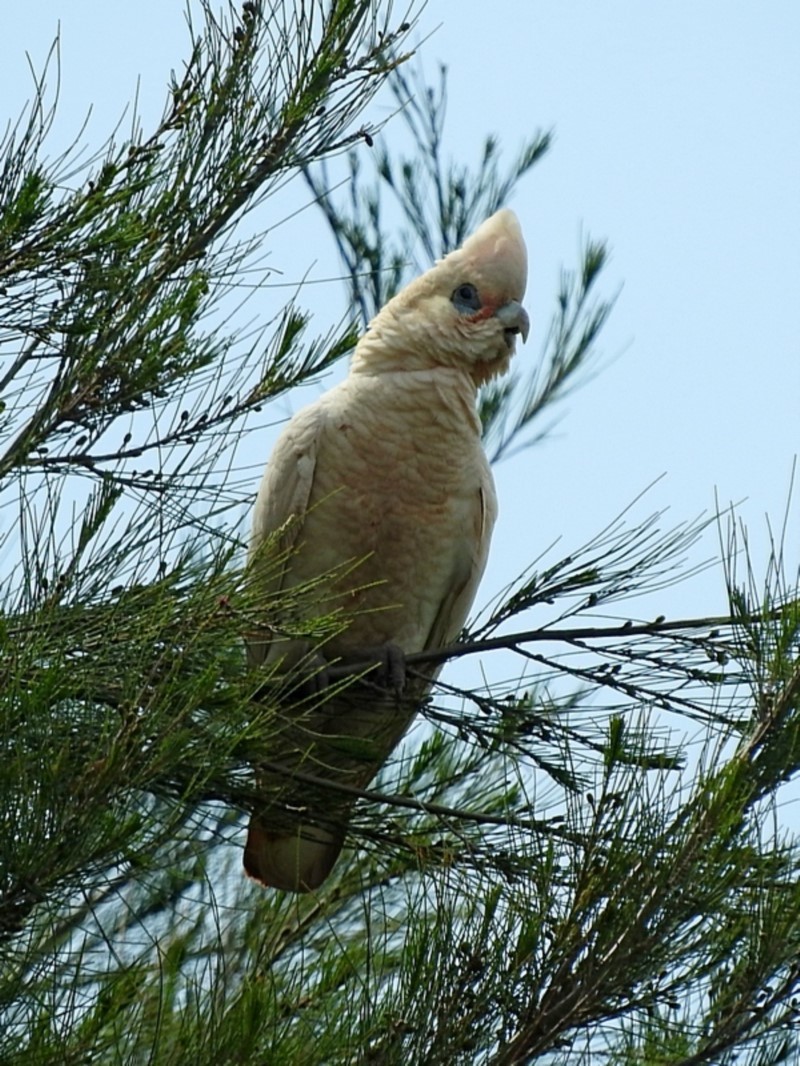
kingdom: Animalia
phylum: Chordata
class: Aves
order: Psittaciformes
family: Psittacidae
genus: Cacatua
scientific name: Cacatua sanguinea
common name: Little corella
